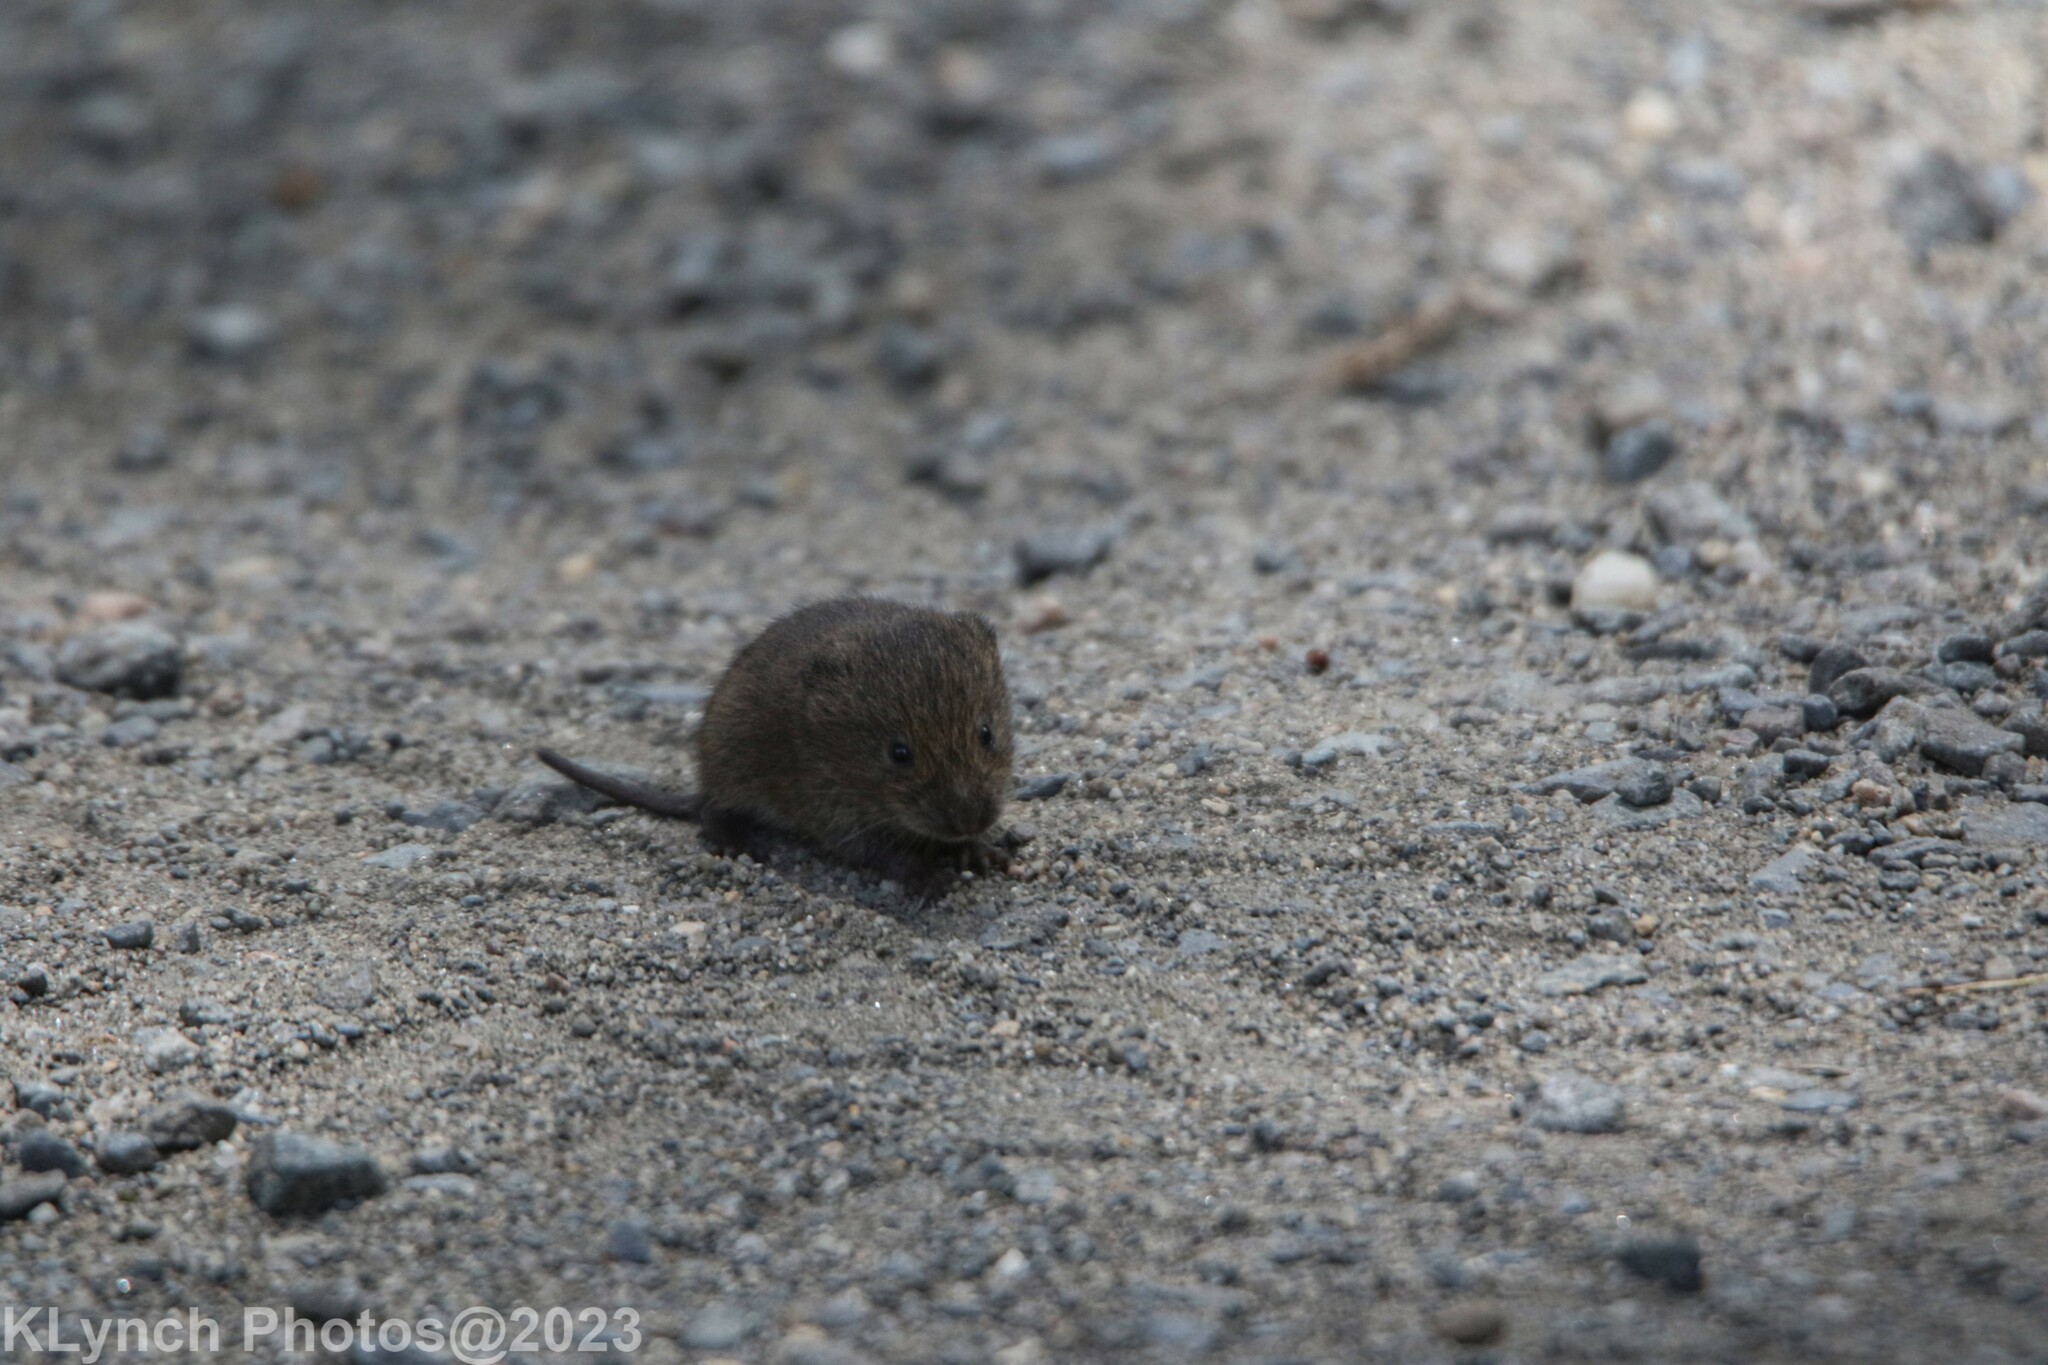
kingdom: Animalia
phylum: Chordata
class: Mammalia
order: Rodentia
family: Cricetidae
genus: Microtus
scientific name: Microtus pennsylvanicus
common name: Meadow vole
